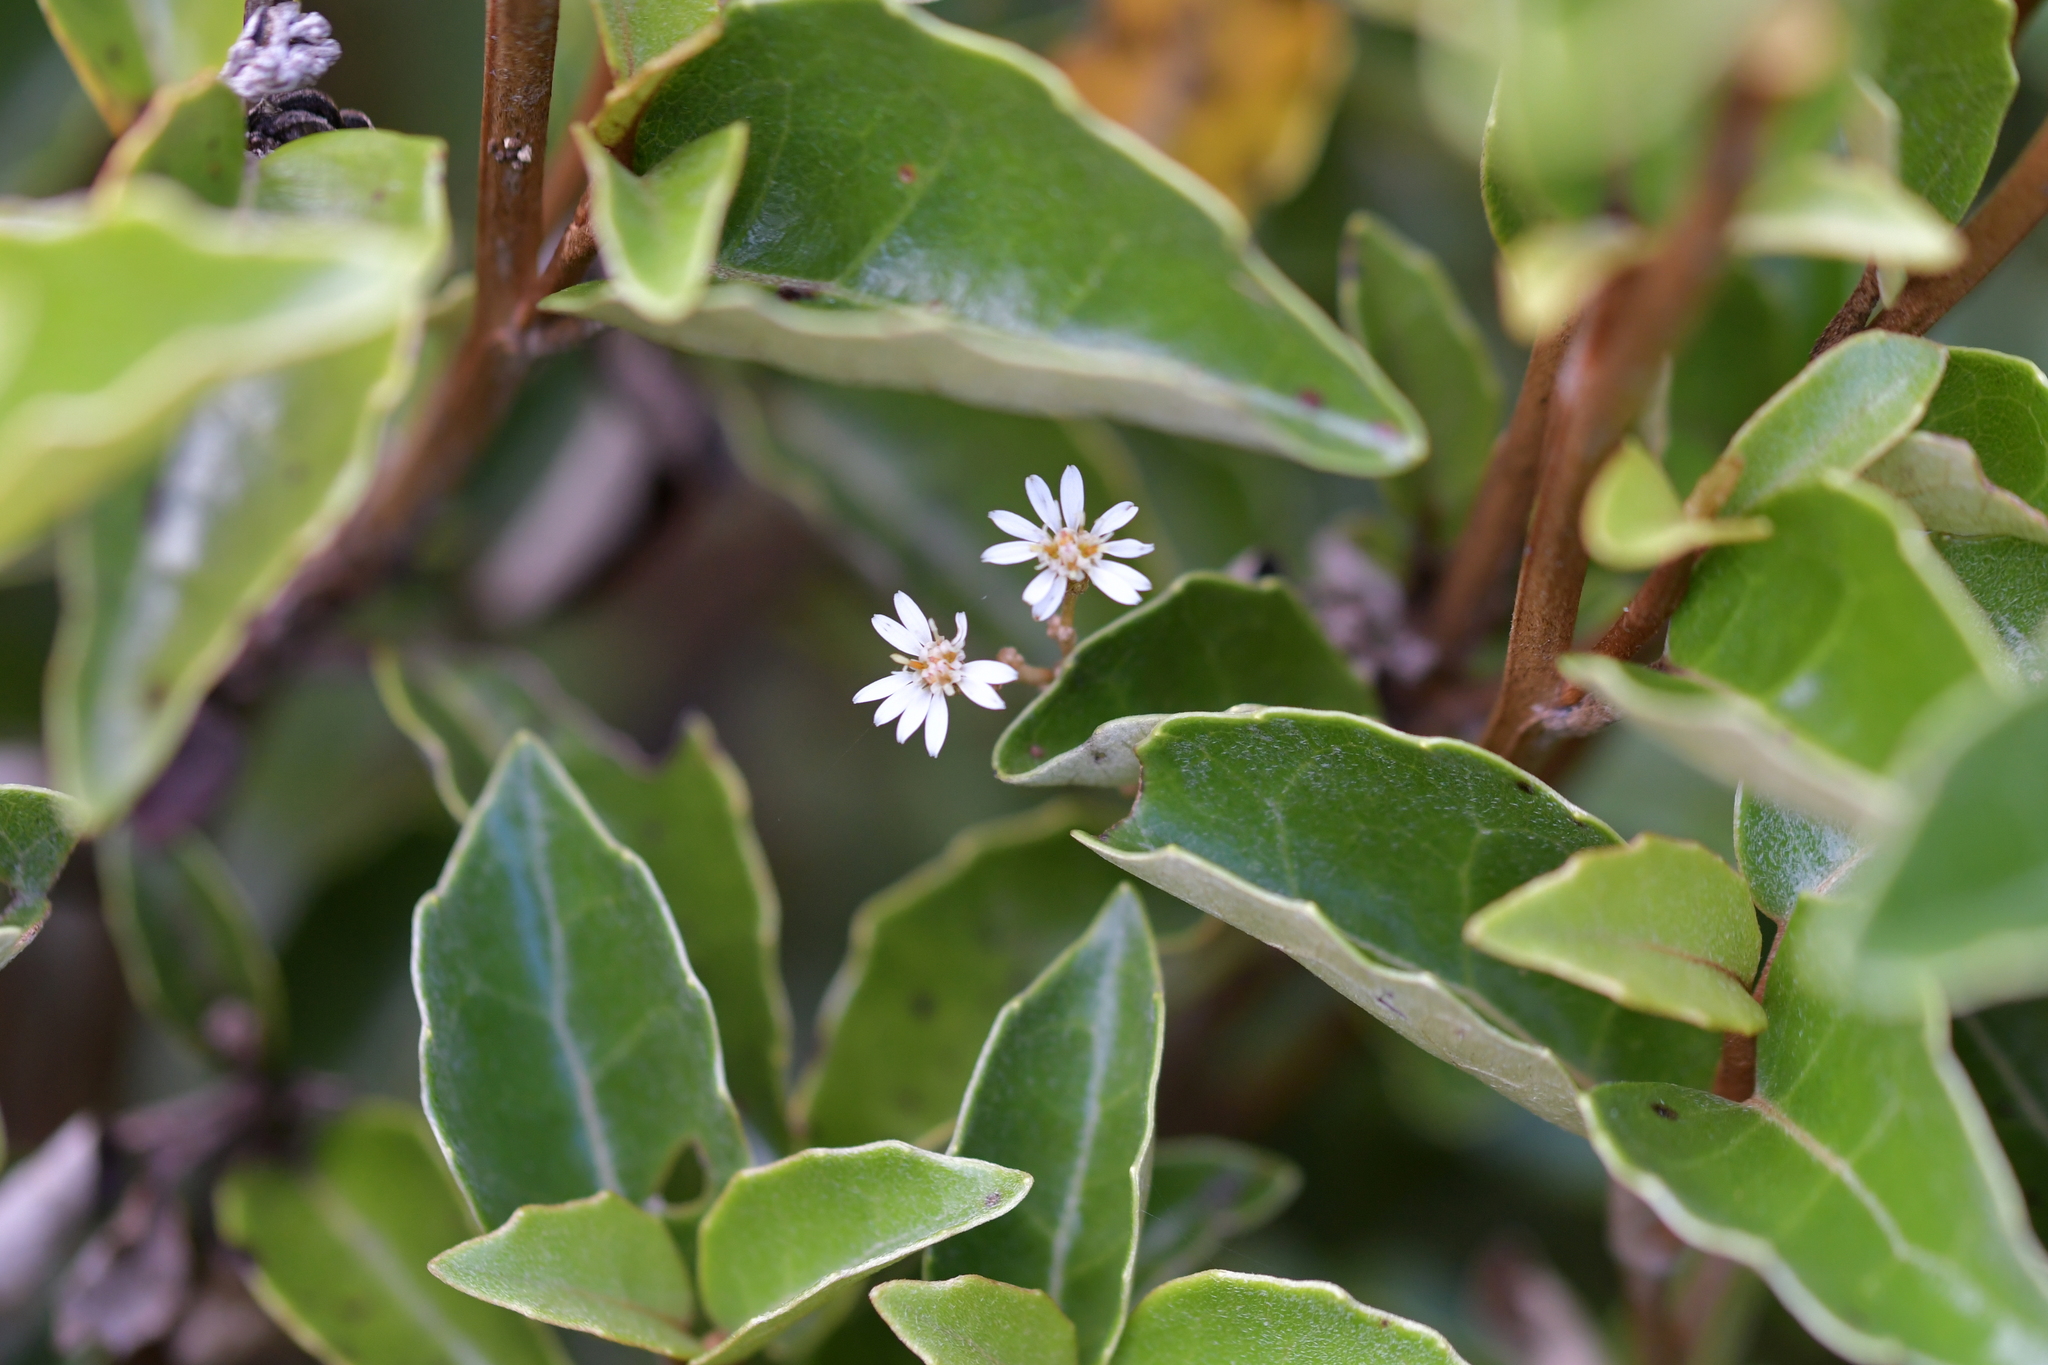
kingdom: Plantae
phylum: Tracheophyta
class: Magnoliopsida
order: Asterales
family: Asteraceae
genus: Olearia
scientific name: Olearia arborescens
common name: Glossy tree daisy
